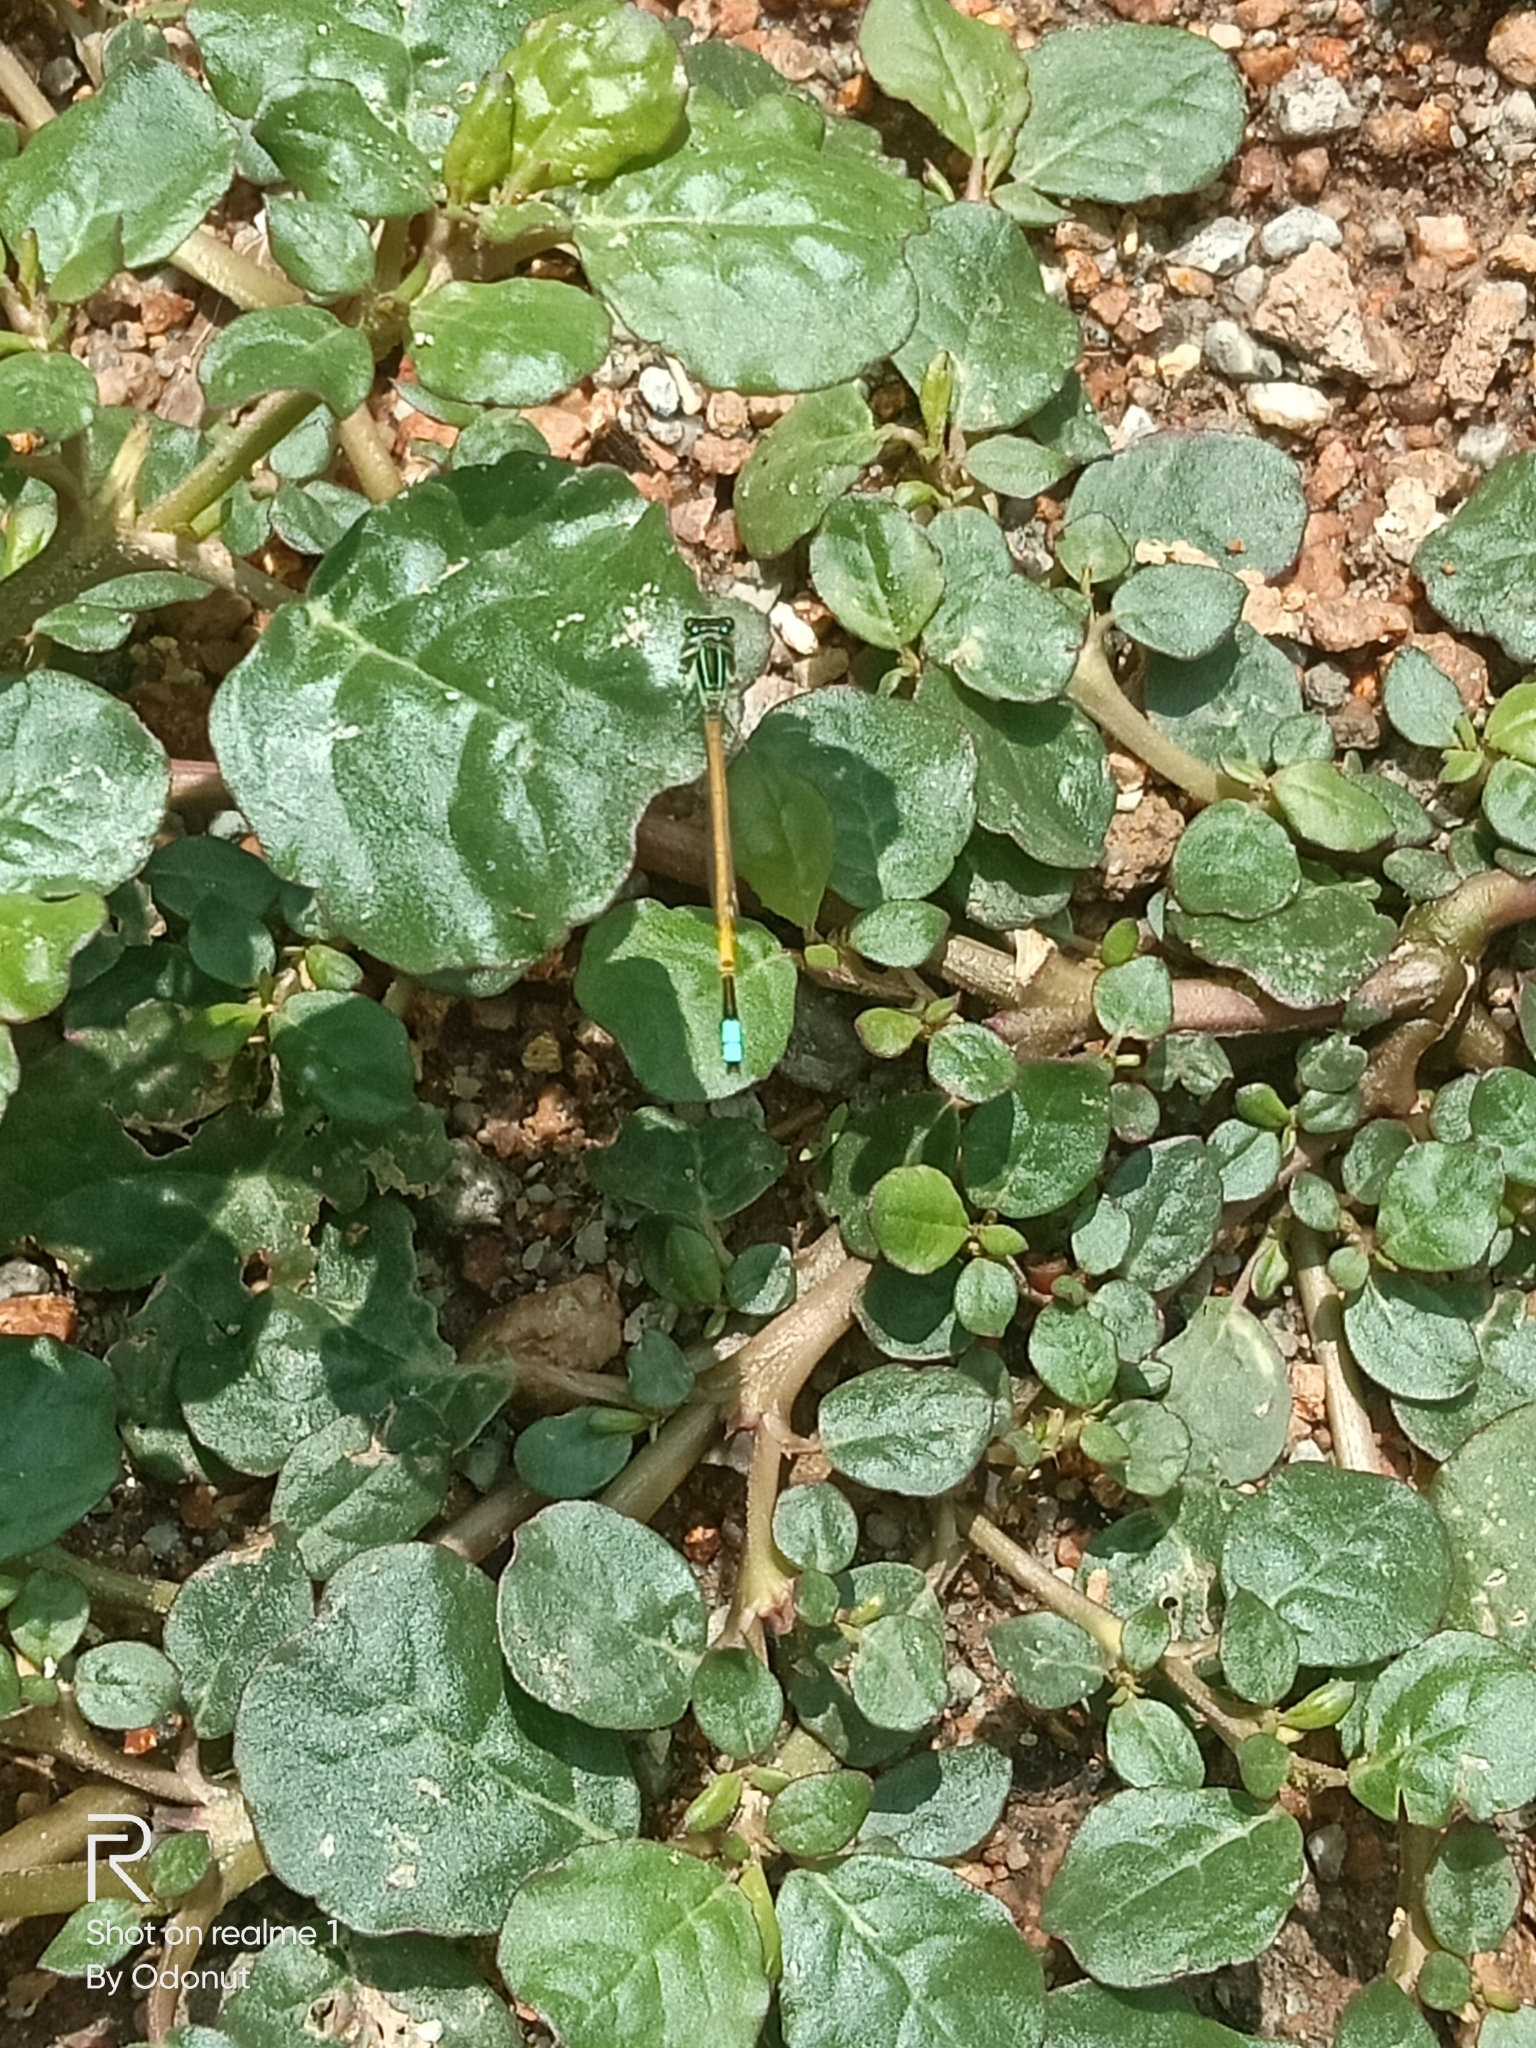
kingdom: Animalia
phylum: Arthropoda
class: Insecta
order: Odonata
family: Coenagrionidae
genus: Ischnura
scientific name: Ischnura rubilio
